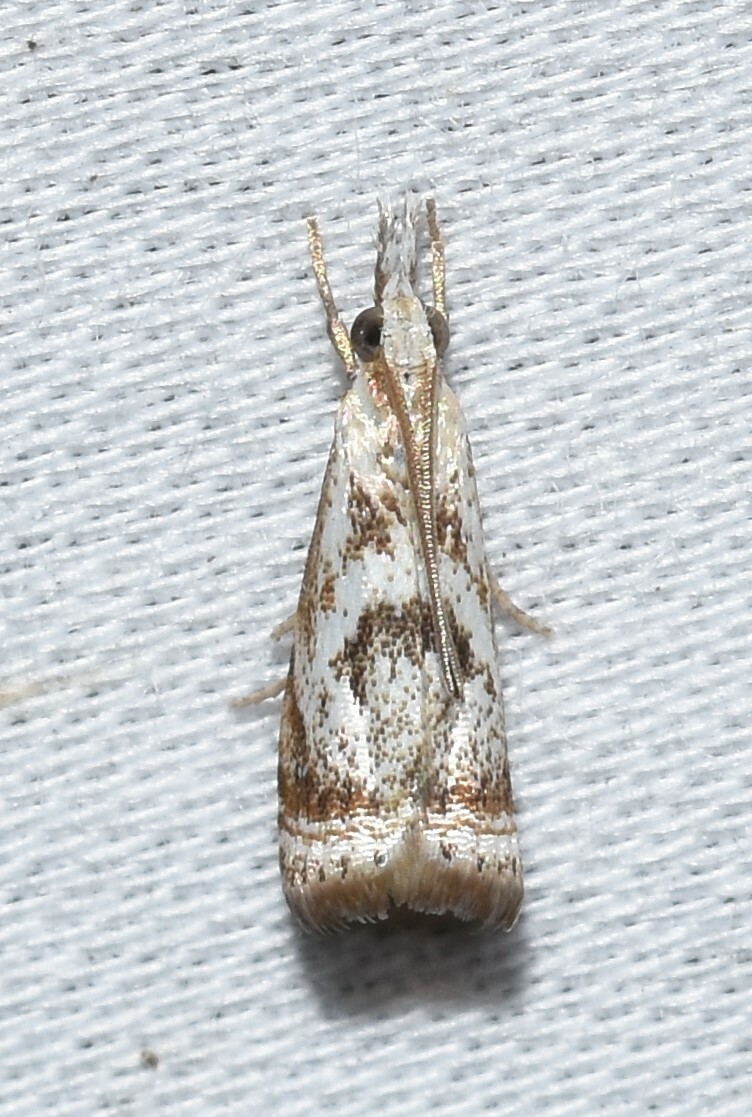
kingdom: Animalia
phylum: Arthropoda
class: Insecta
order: Lepidoptera
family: Crambidae
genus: Microcrambus
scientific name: Microcrambus elegans
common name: Elegant grass-veneer
